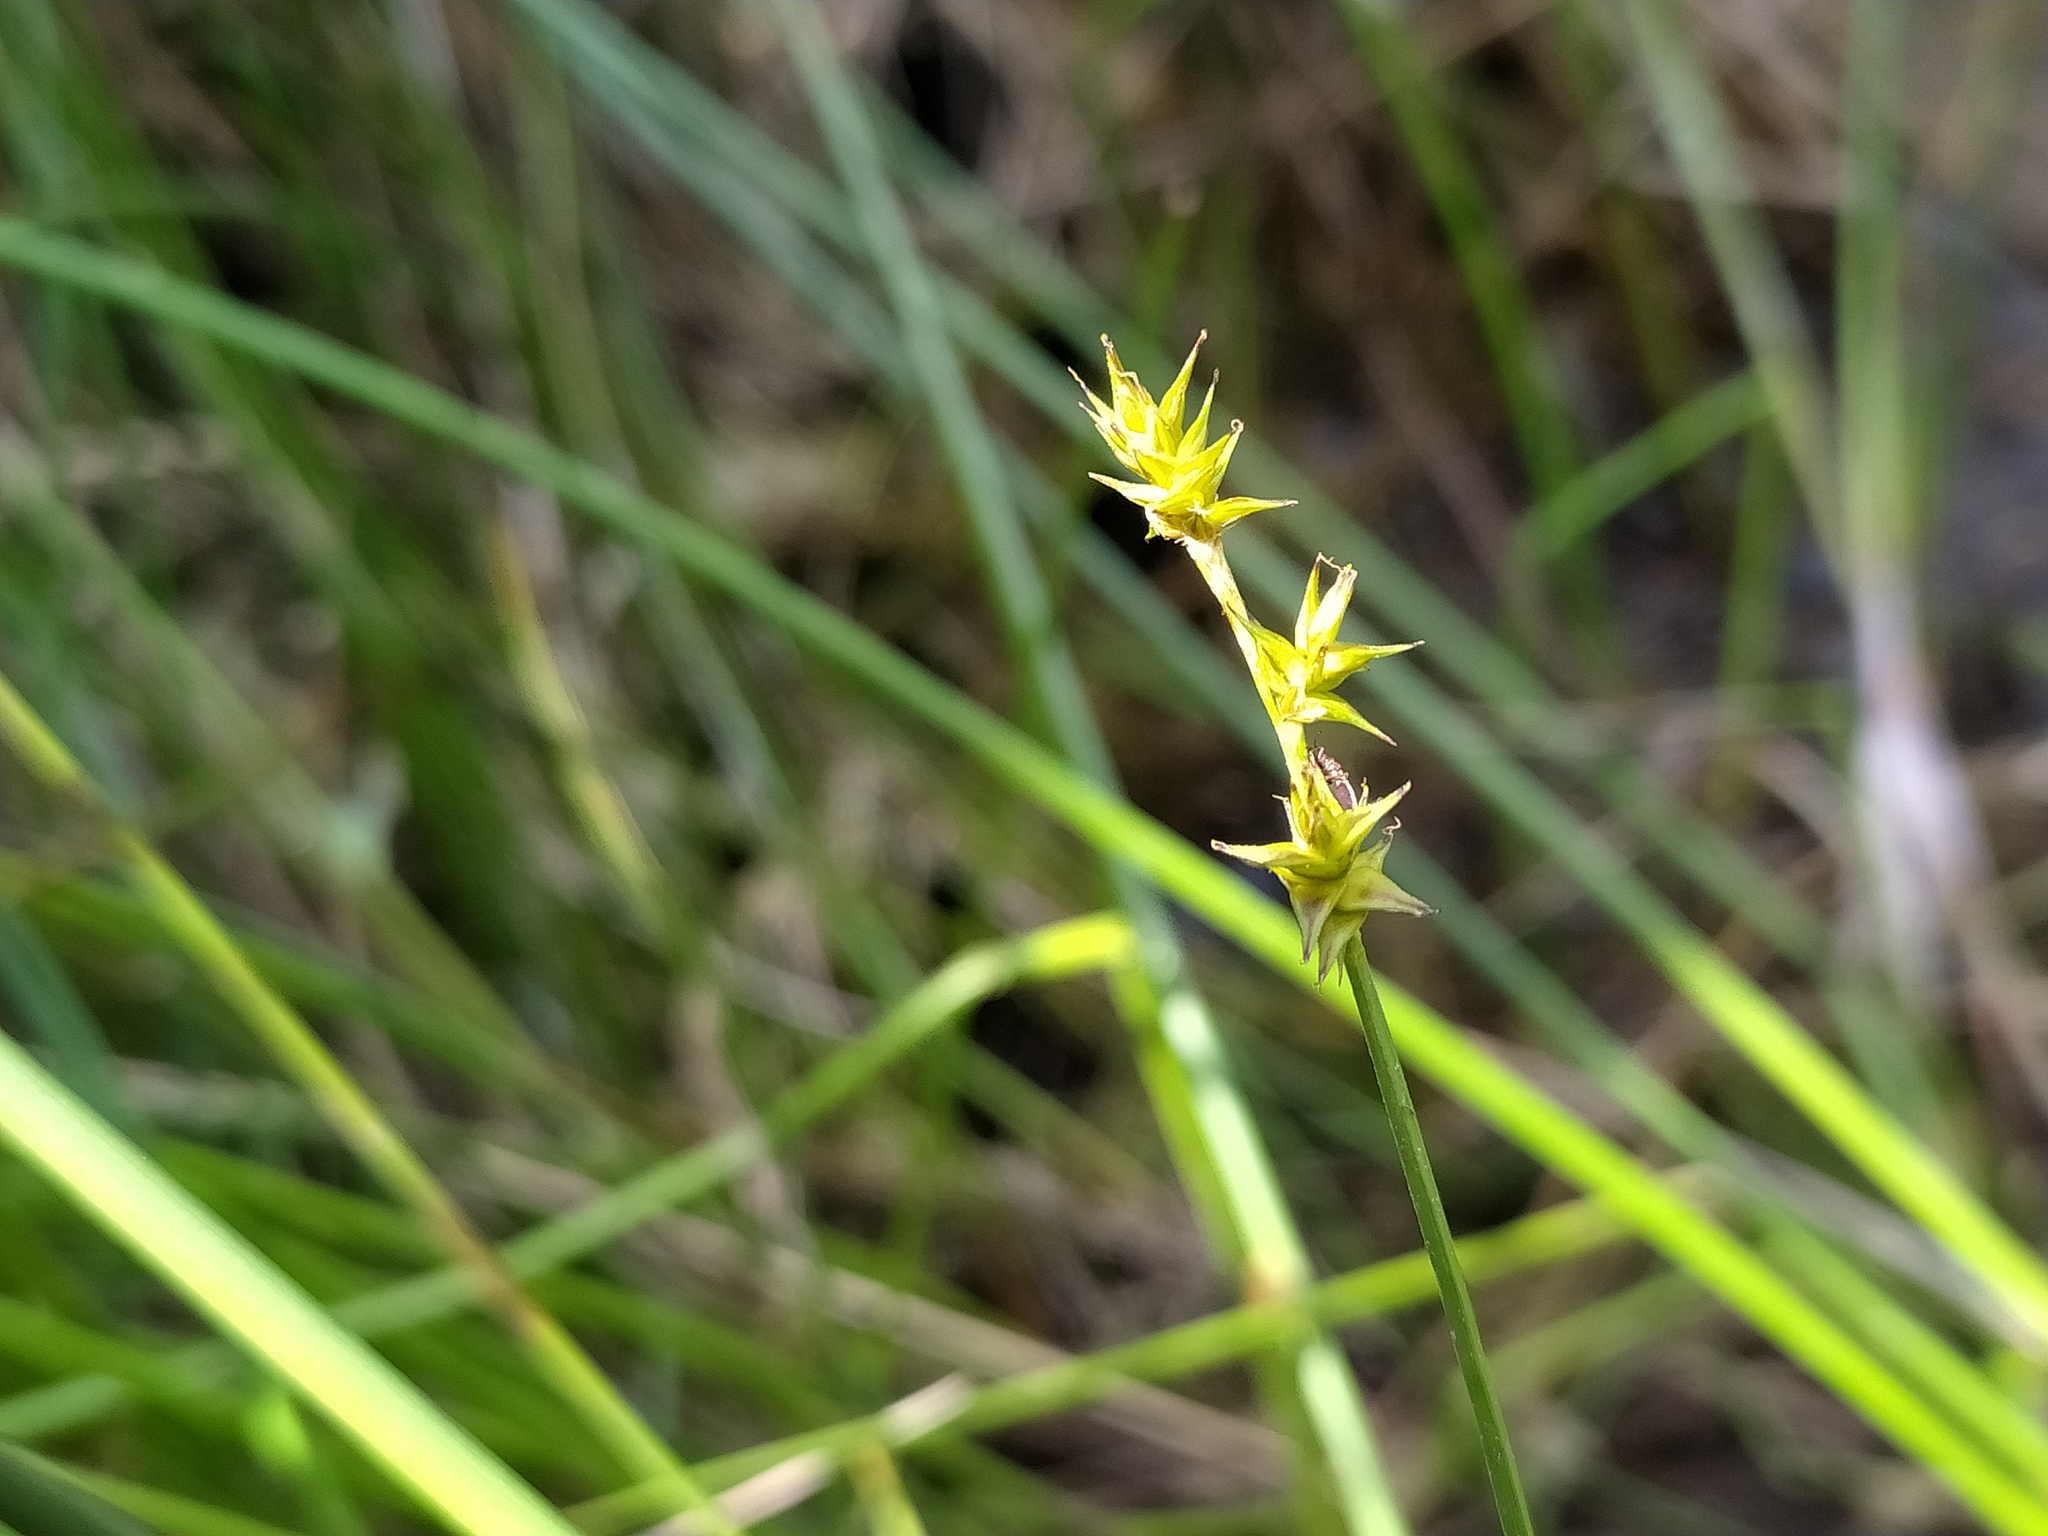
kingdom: Plantae
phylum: Tracheophyta
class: Liliopsida
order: Poales
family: Cyperaceae
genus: Carex
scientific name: Carex echinata
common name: Star sedge
